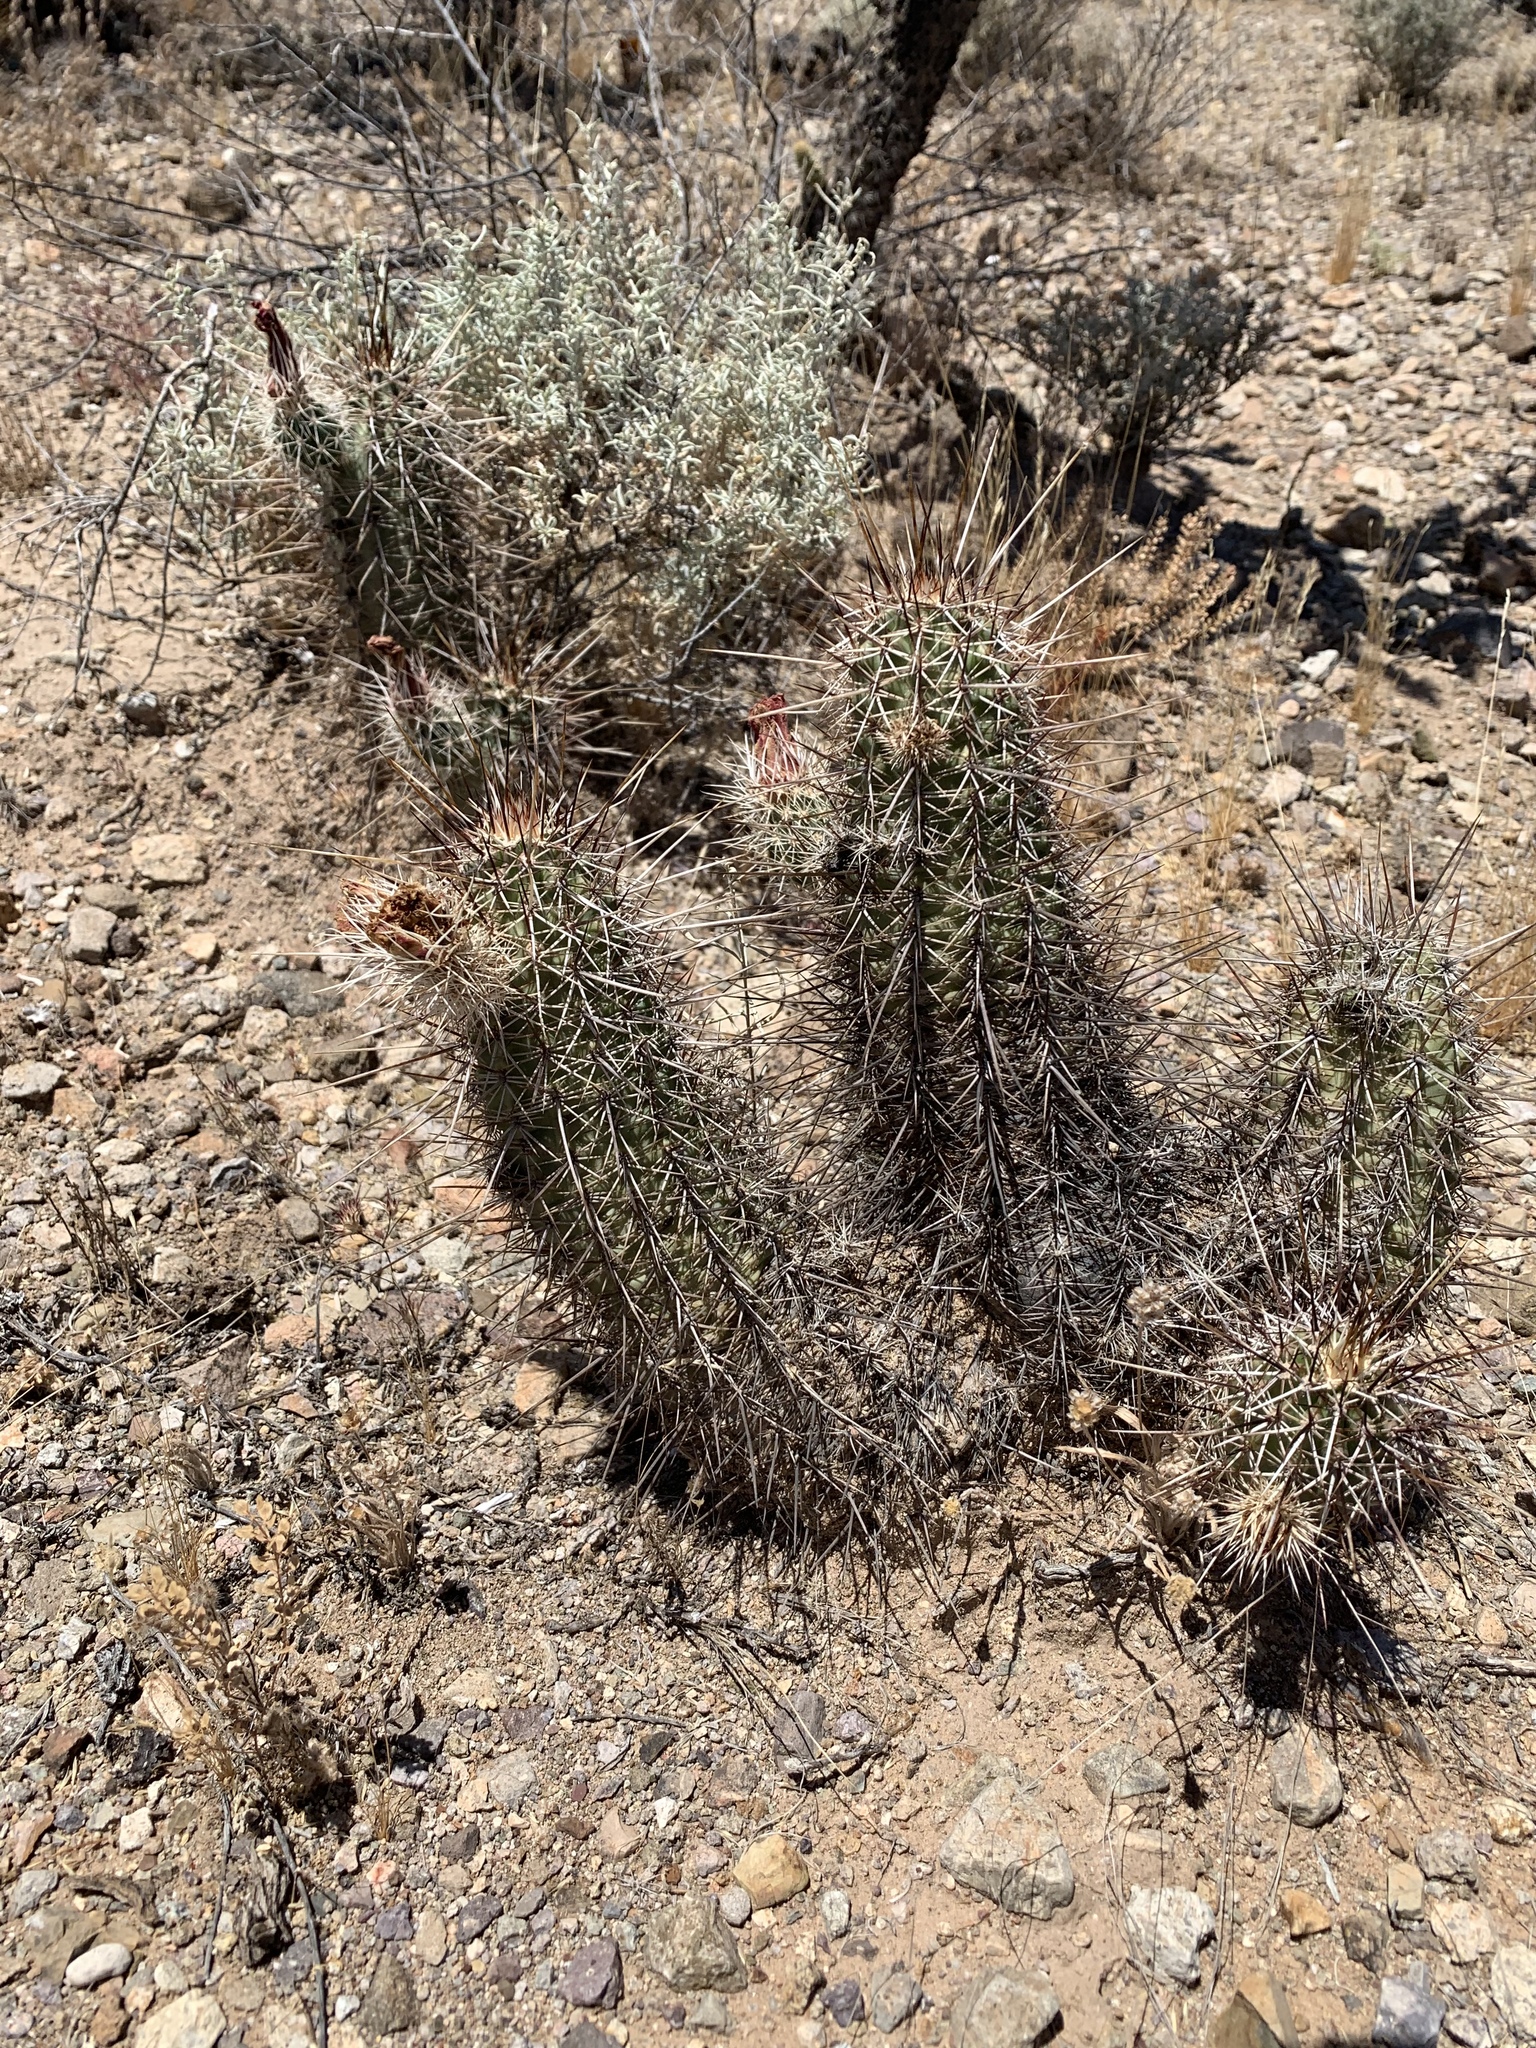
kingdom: Plantae
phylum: Tracheophyta
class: Magnoliopsida
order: Caryophyllales
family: Cactaceae
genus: Echinocereus
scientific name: Echinocereus fasciculatus
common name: Bundle hedgehog
